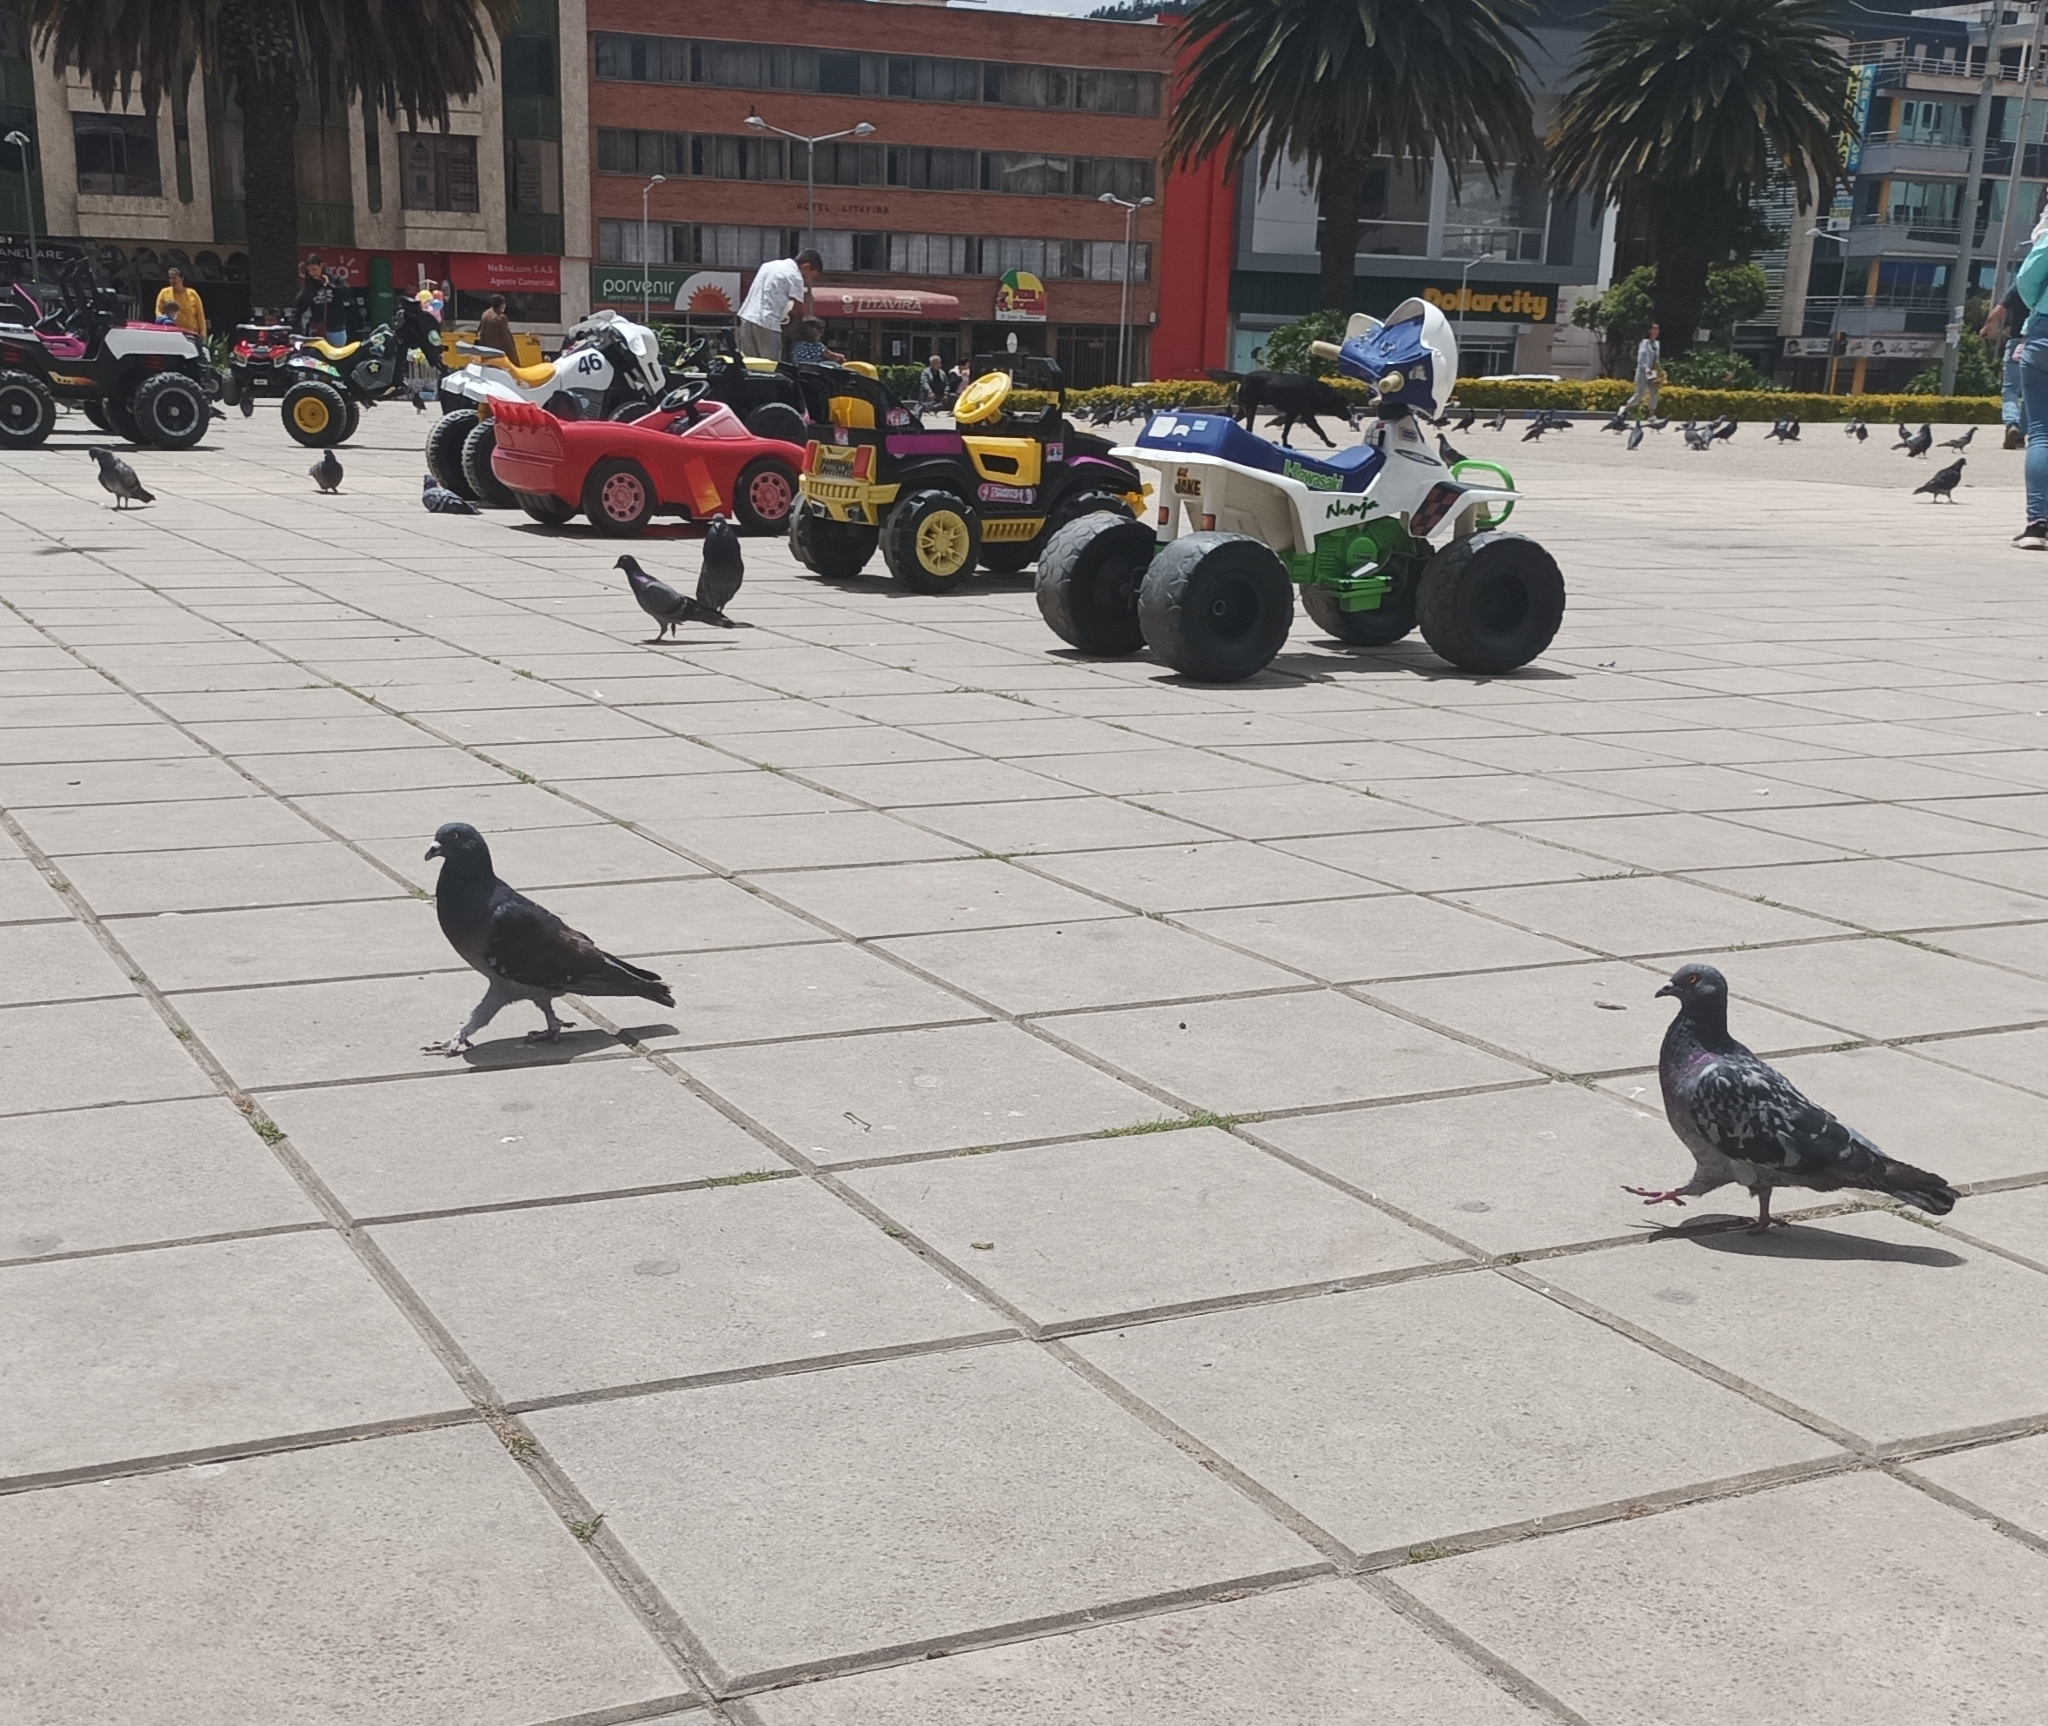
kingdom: Animalia
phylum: Chordata
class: Aves
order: Columbiformes
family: Columbidae
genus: Columba
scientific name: Columba livia
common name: Rock pigeon
